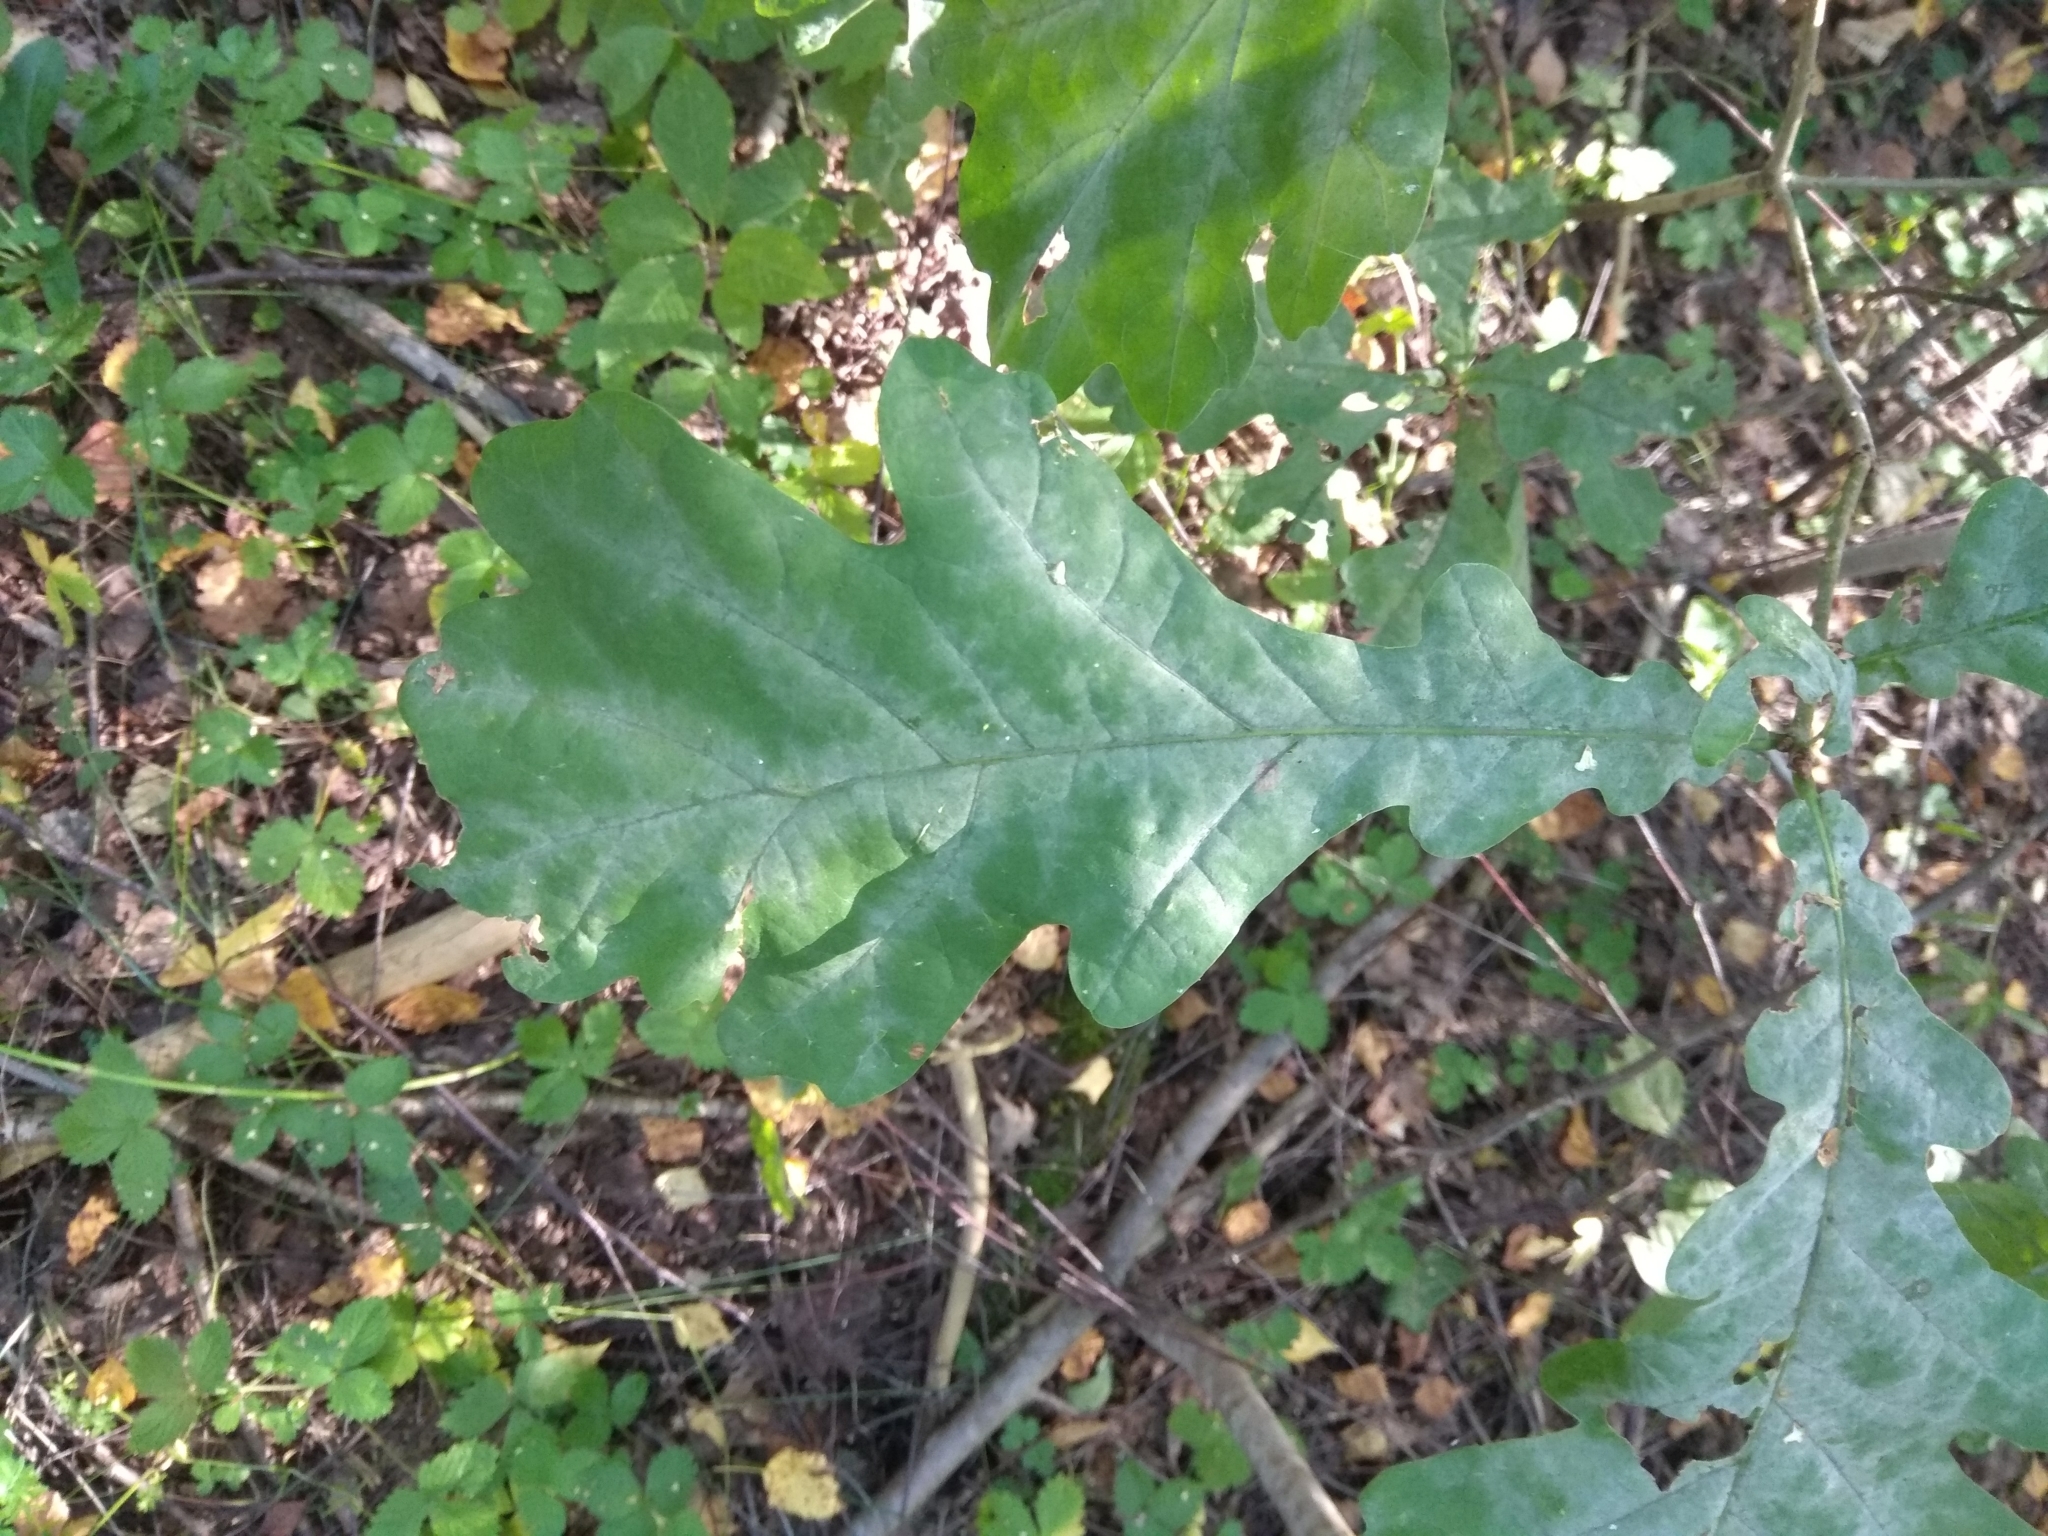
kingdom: Plantae
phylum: Tracheophyta
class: Magnoliopsida
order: Fagales
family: Fagaceae
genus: Quercus
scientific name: Quercus robur
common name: Pedunculate oak
